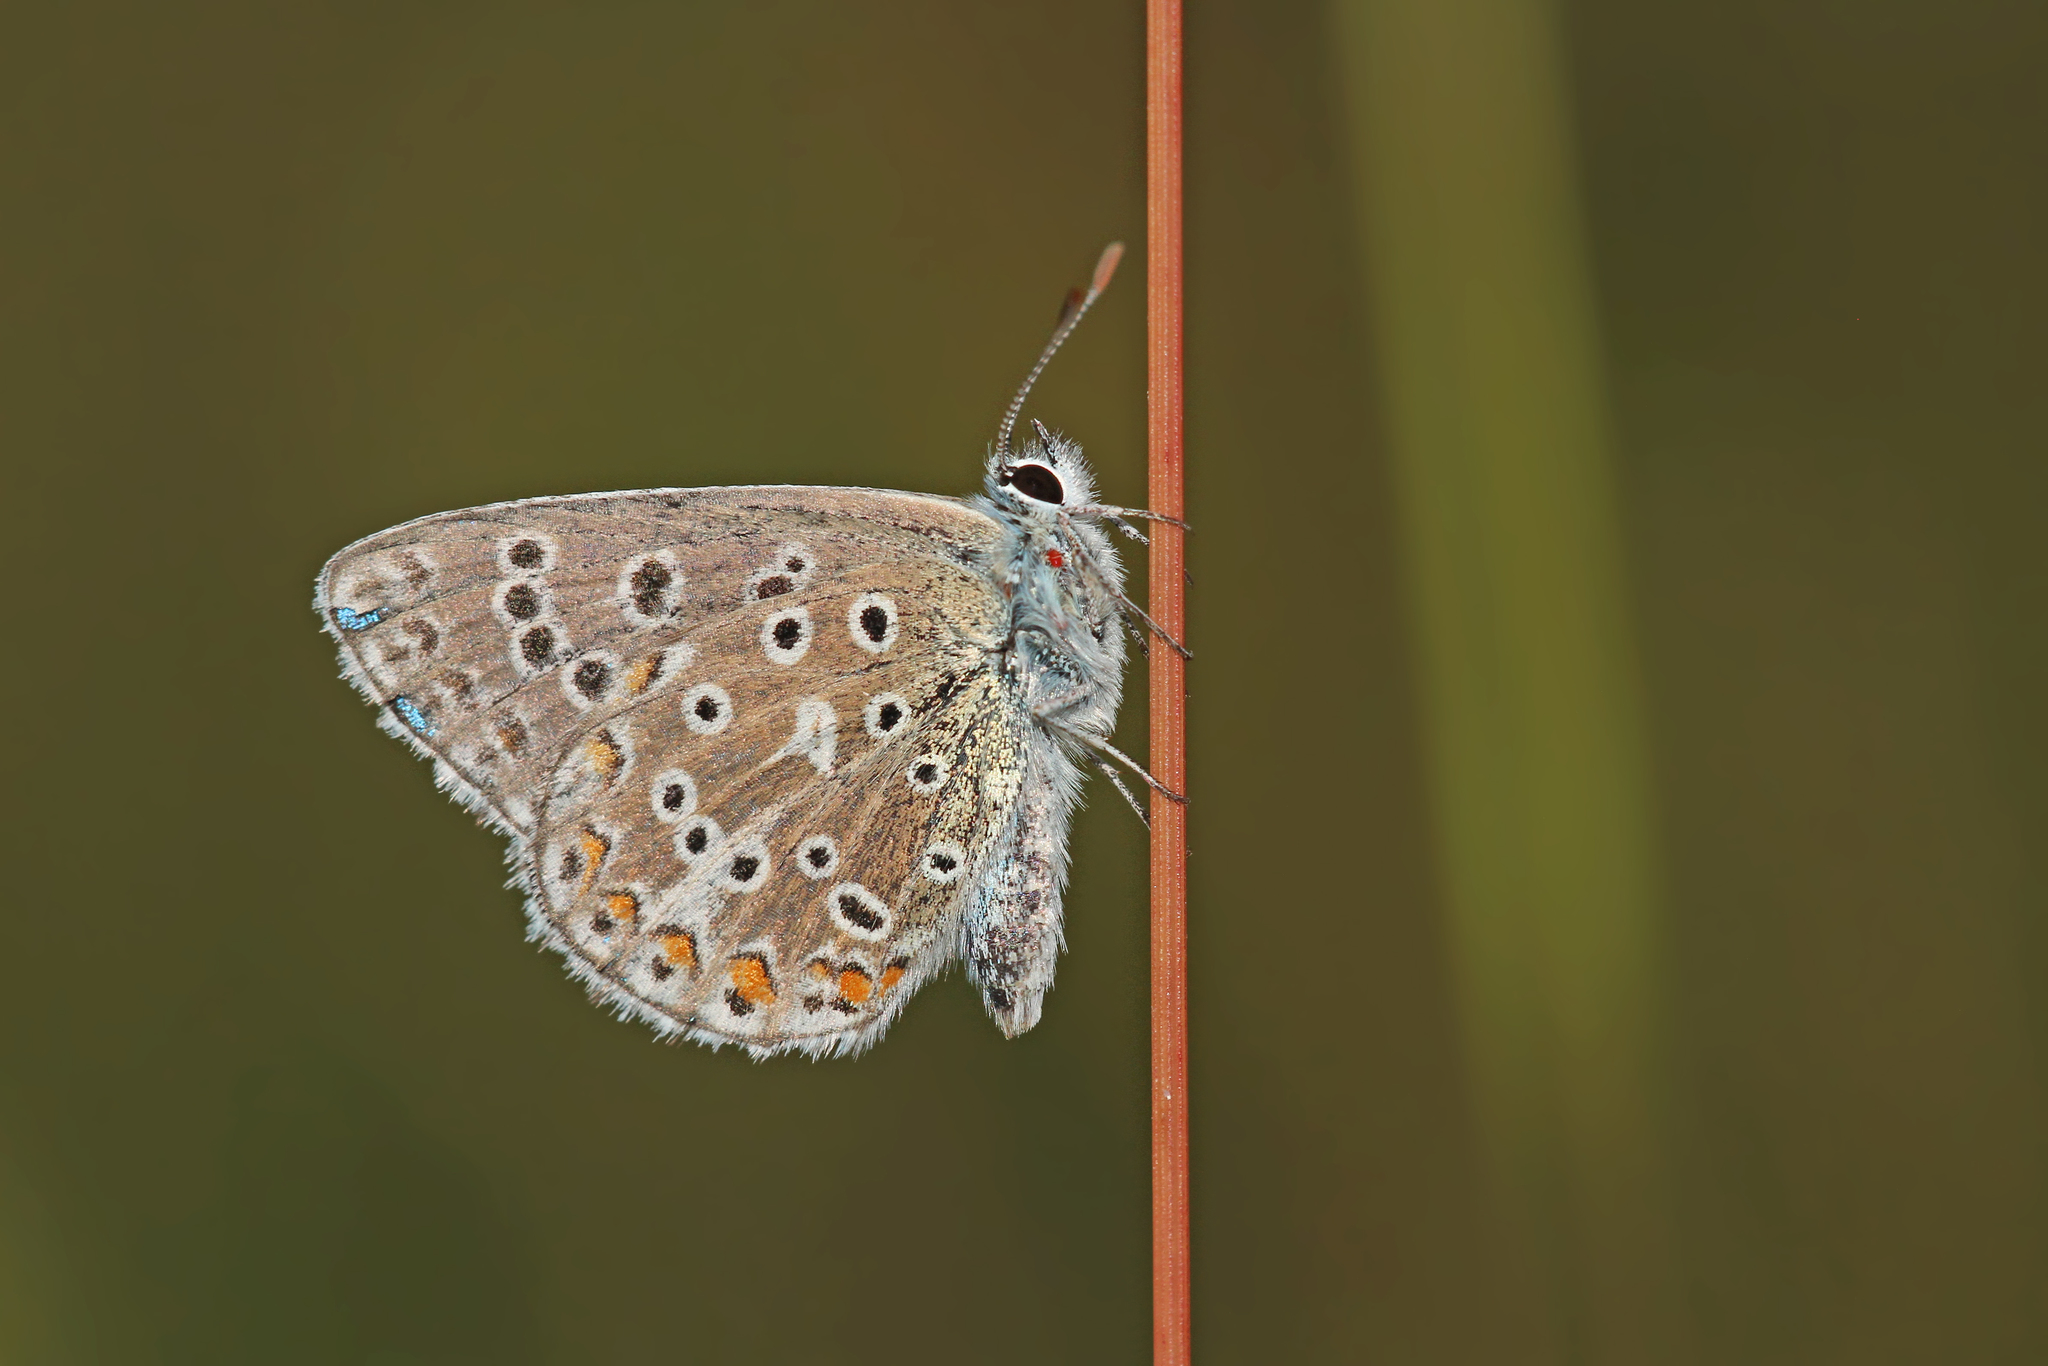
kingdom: Animalia
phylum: Arthropoda
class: Insecta
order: Lepidoptera
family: Lycaenidae
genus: Lysandra
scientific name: Lysandra bellargus
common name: Adonis blue
